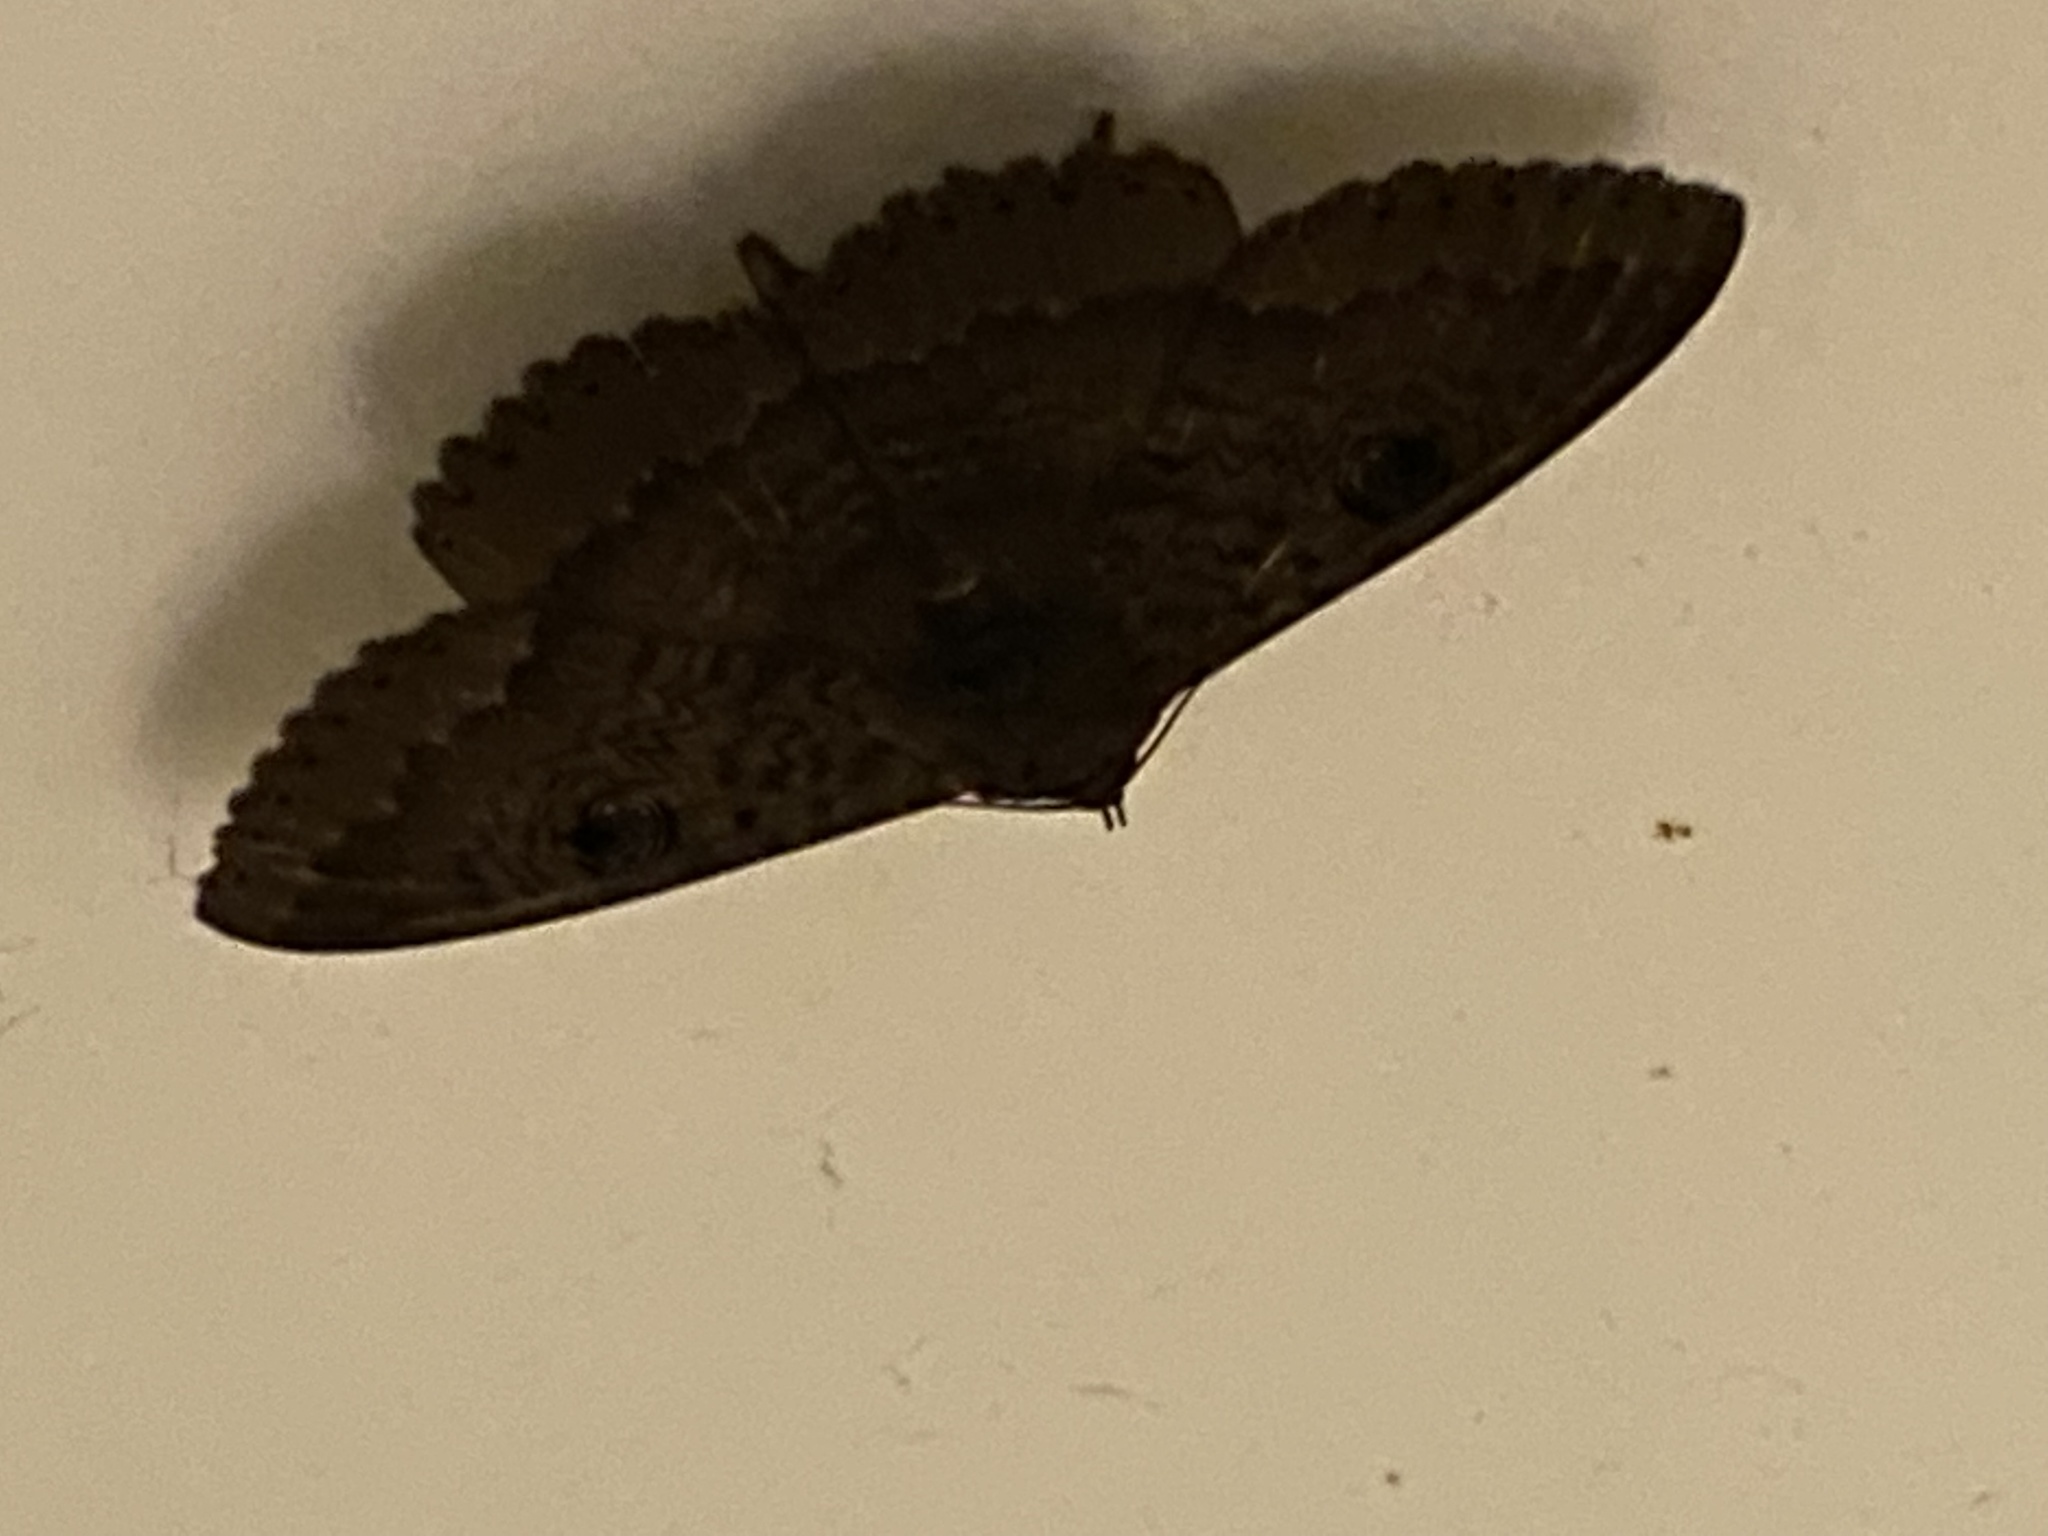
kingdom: Animalia
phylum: Arthropoda
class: Insecta
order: Lepidoptera
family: Erebidae
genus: Dasypodia
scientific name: Dasypodia cymatodes
